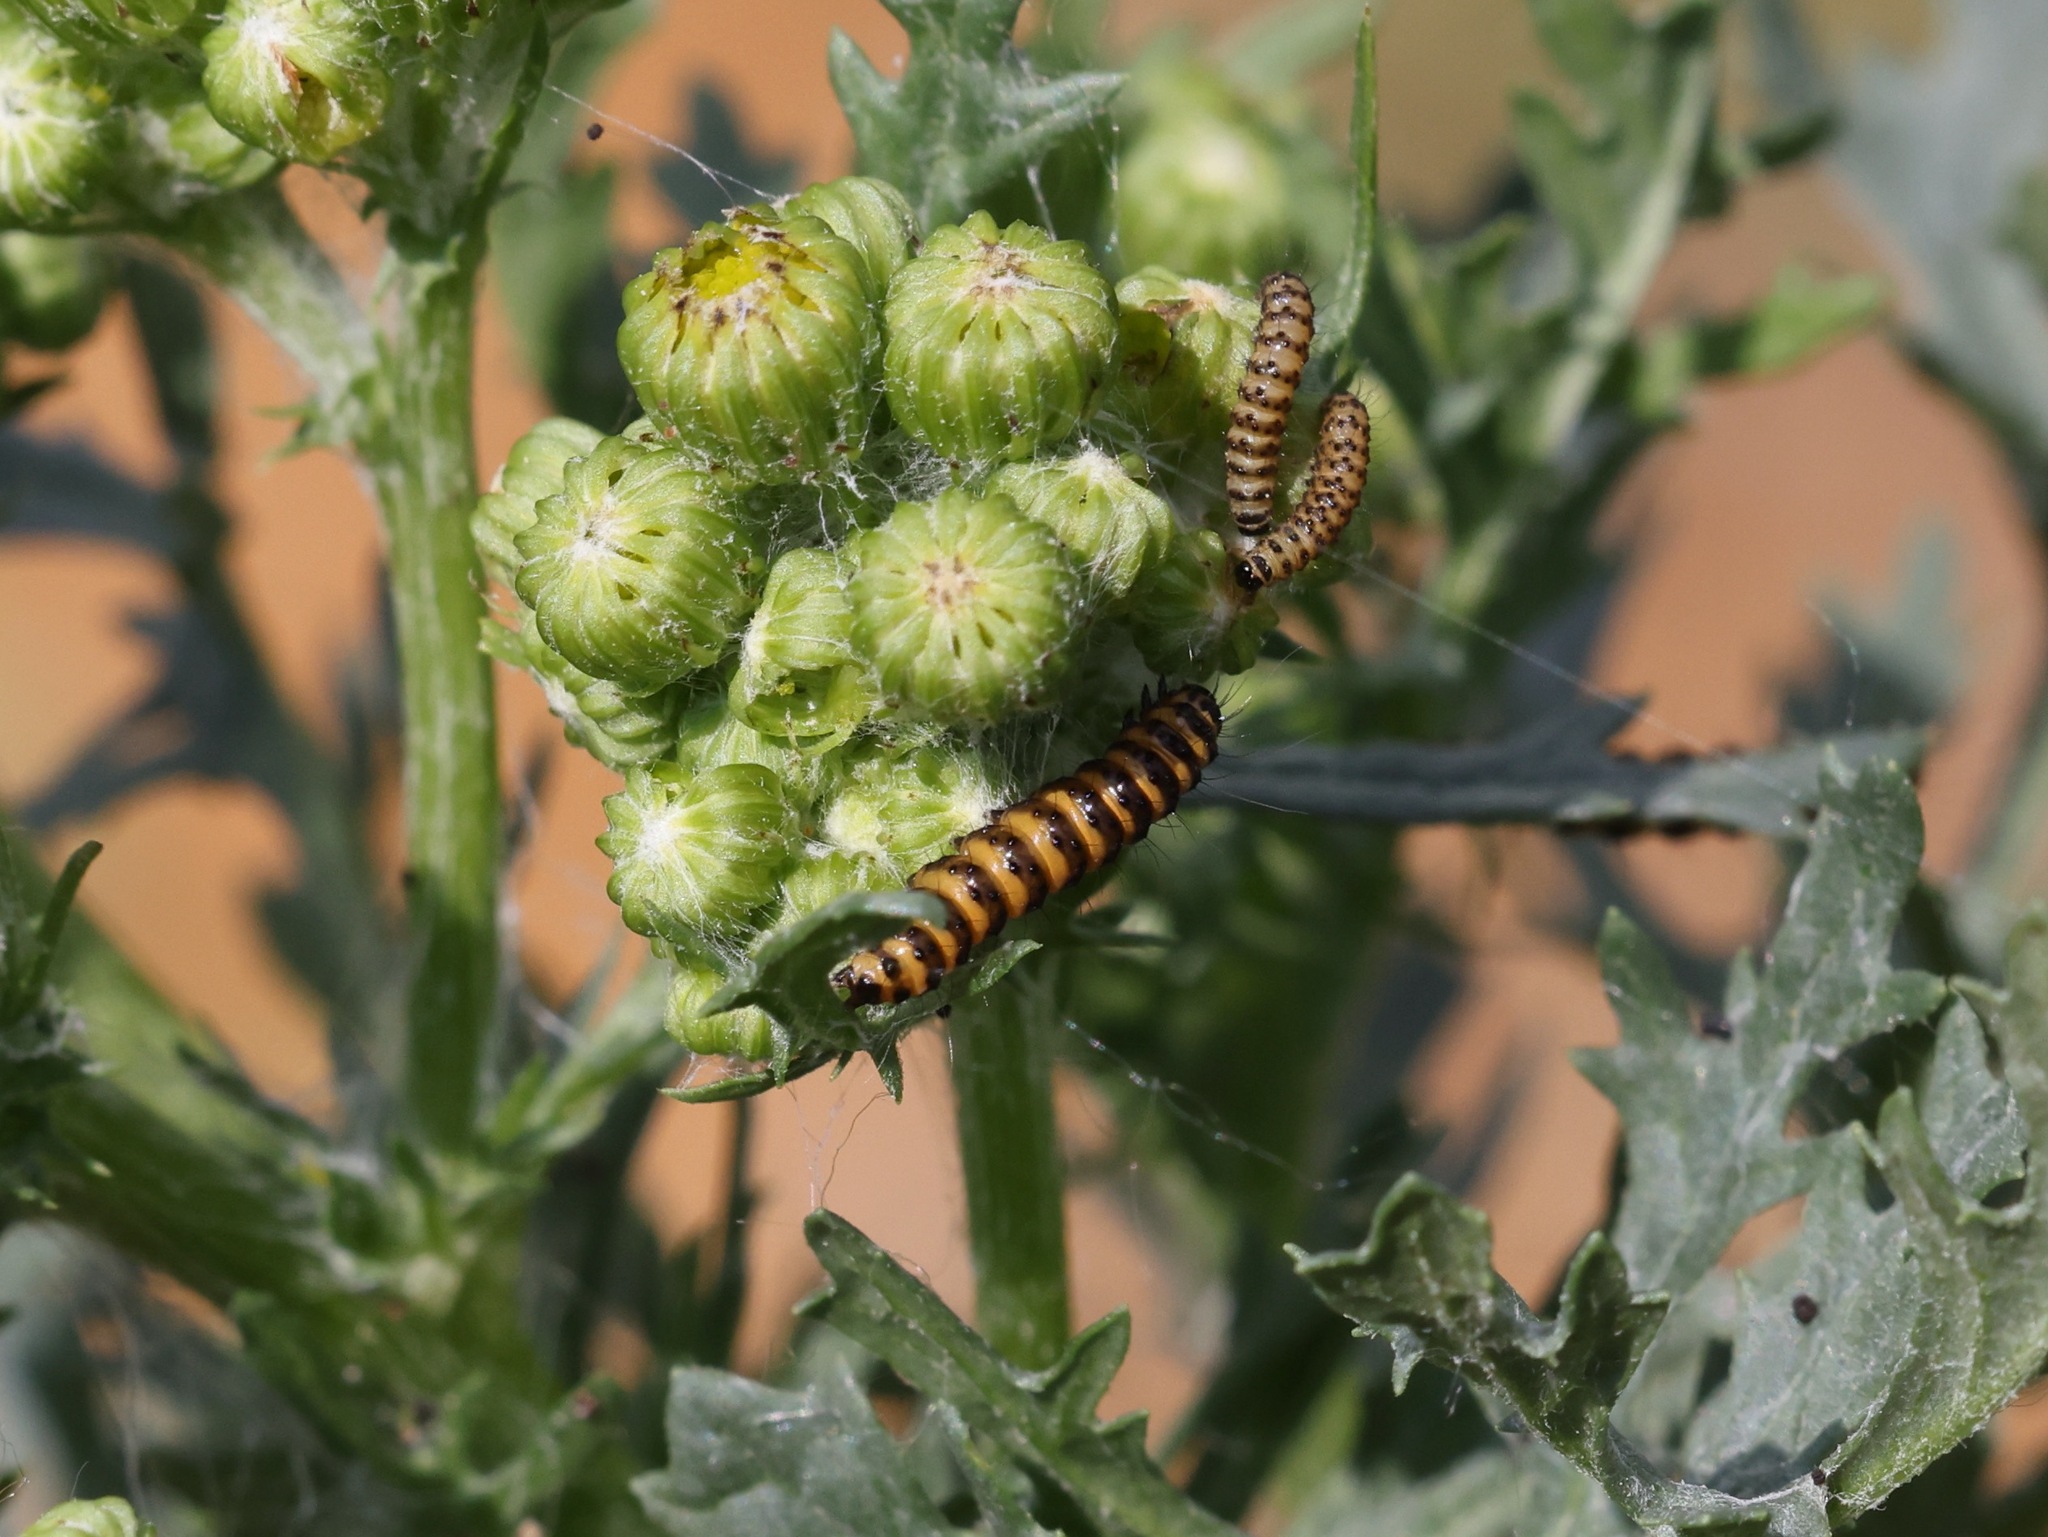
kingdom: Animalia
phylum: Arthropoda
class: Insecta
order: Lepidoptera
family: Erebidae
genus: Tyria
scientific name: Tyria jacobaeae
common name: Cinnabar
